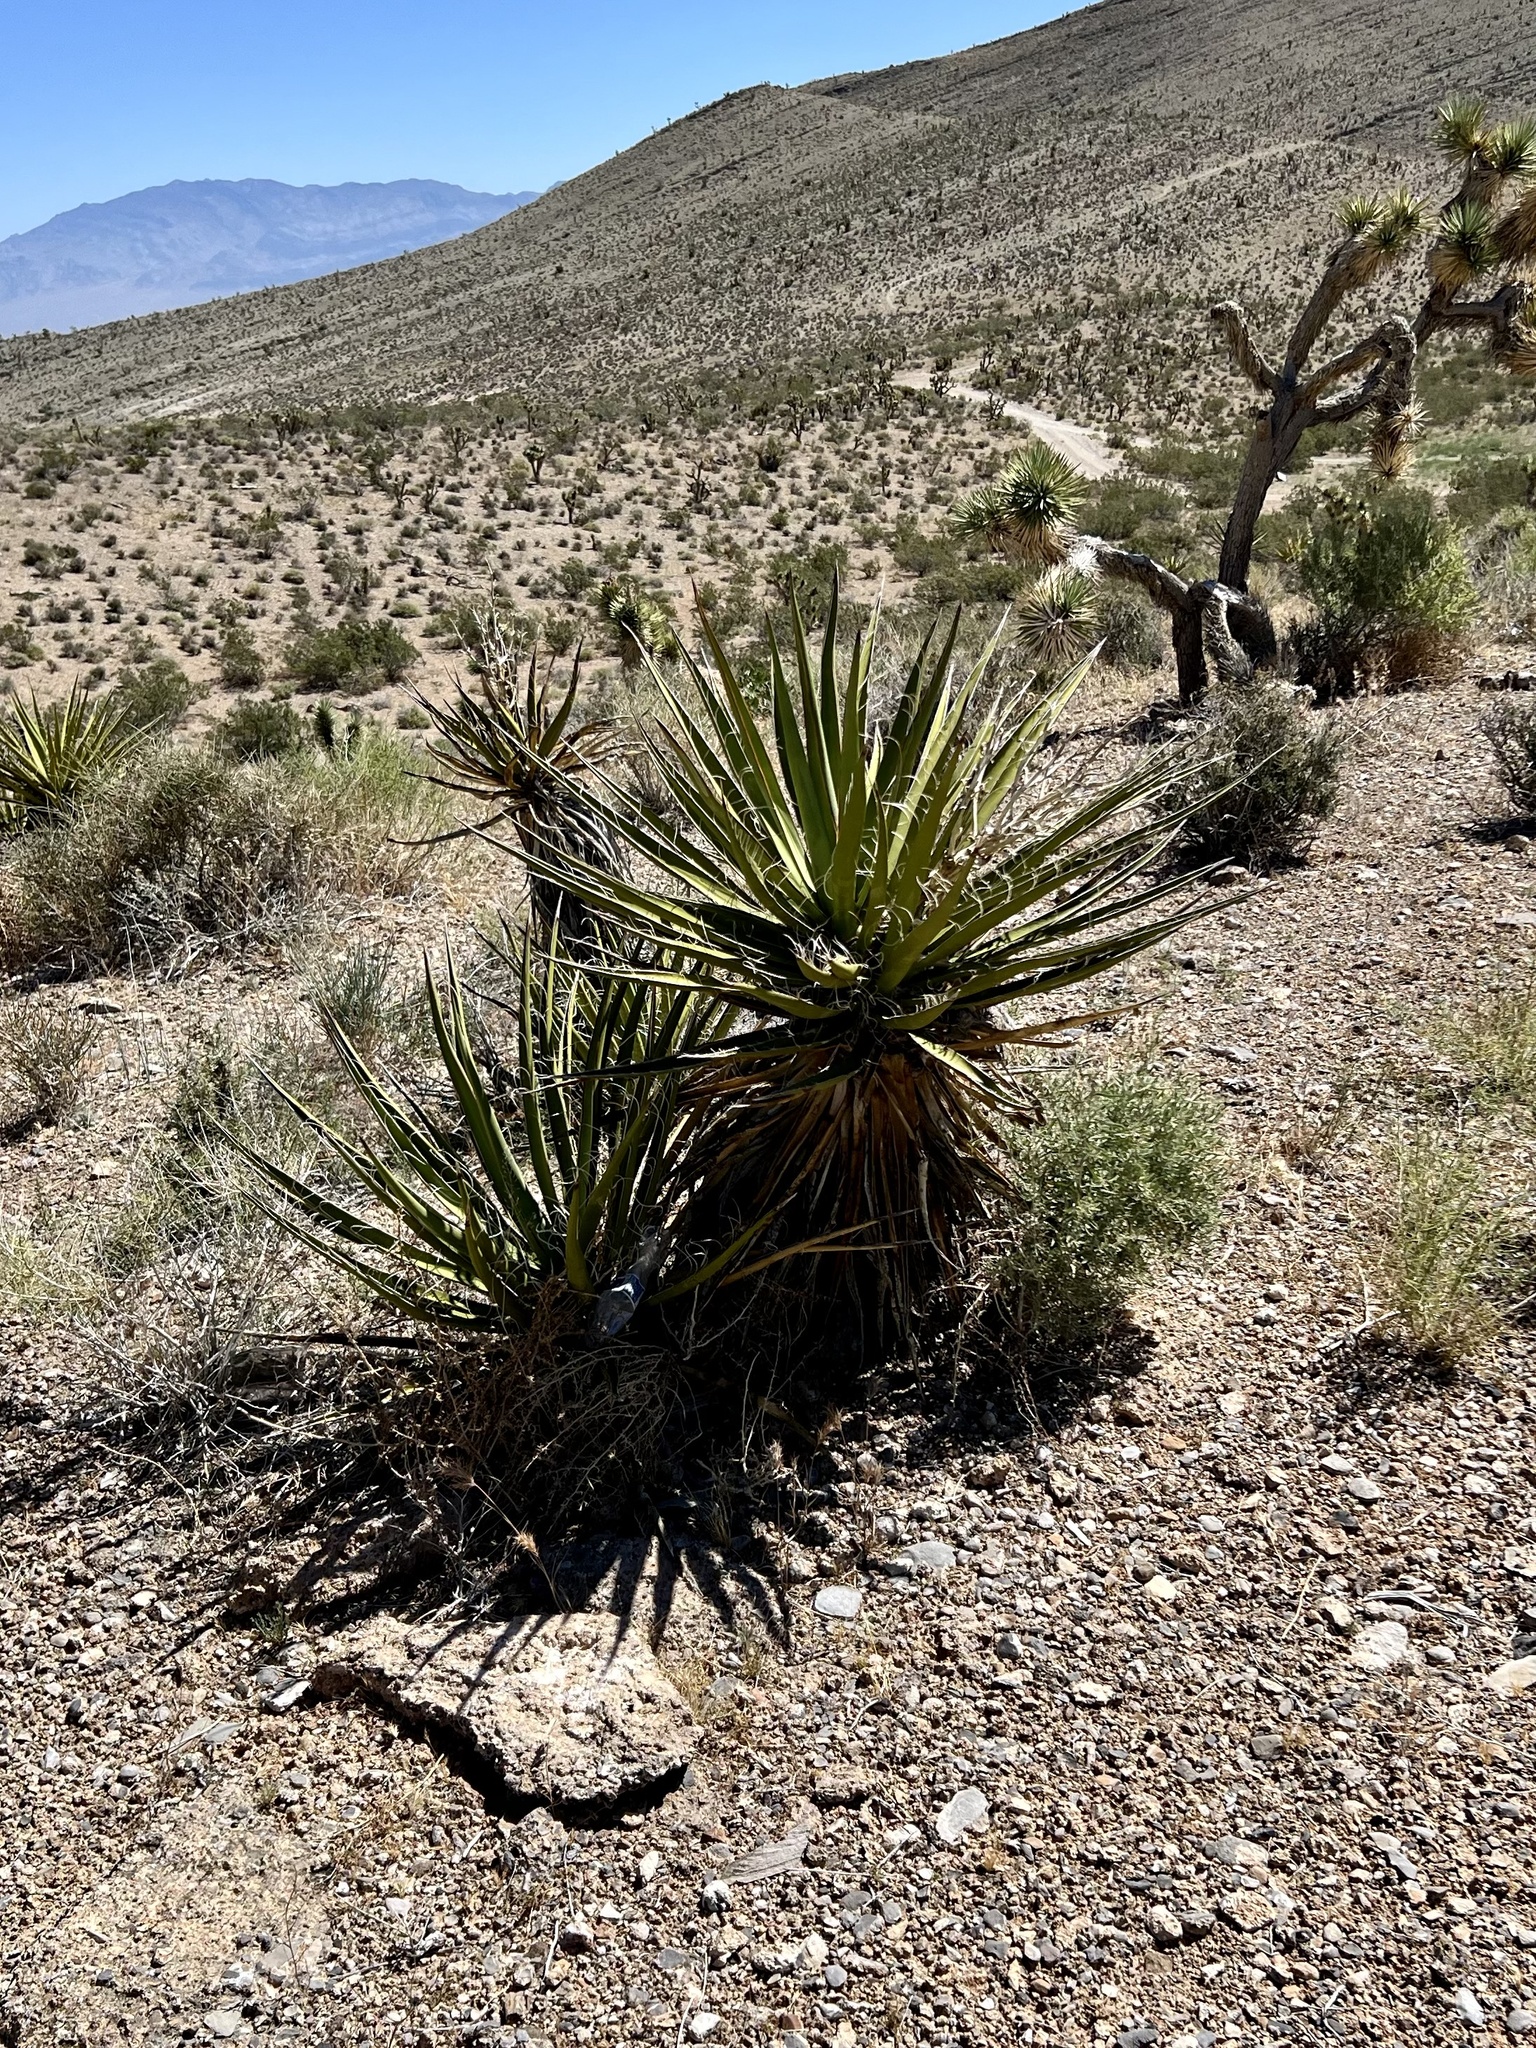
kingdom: Plantae
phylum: Tracheophyta
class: Liliopsida
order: Asparagales
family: Asparagaceae
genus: Yucca
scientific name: Yucca schidigera
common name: Mojave yucca
